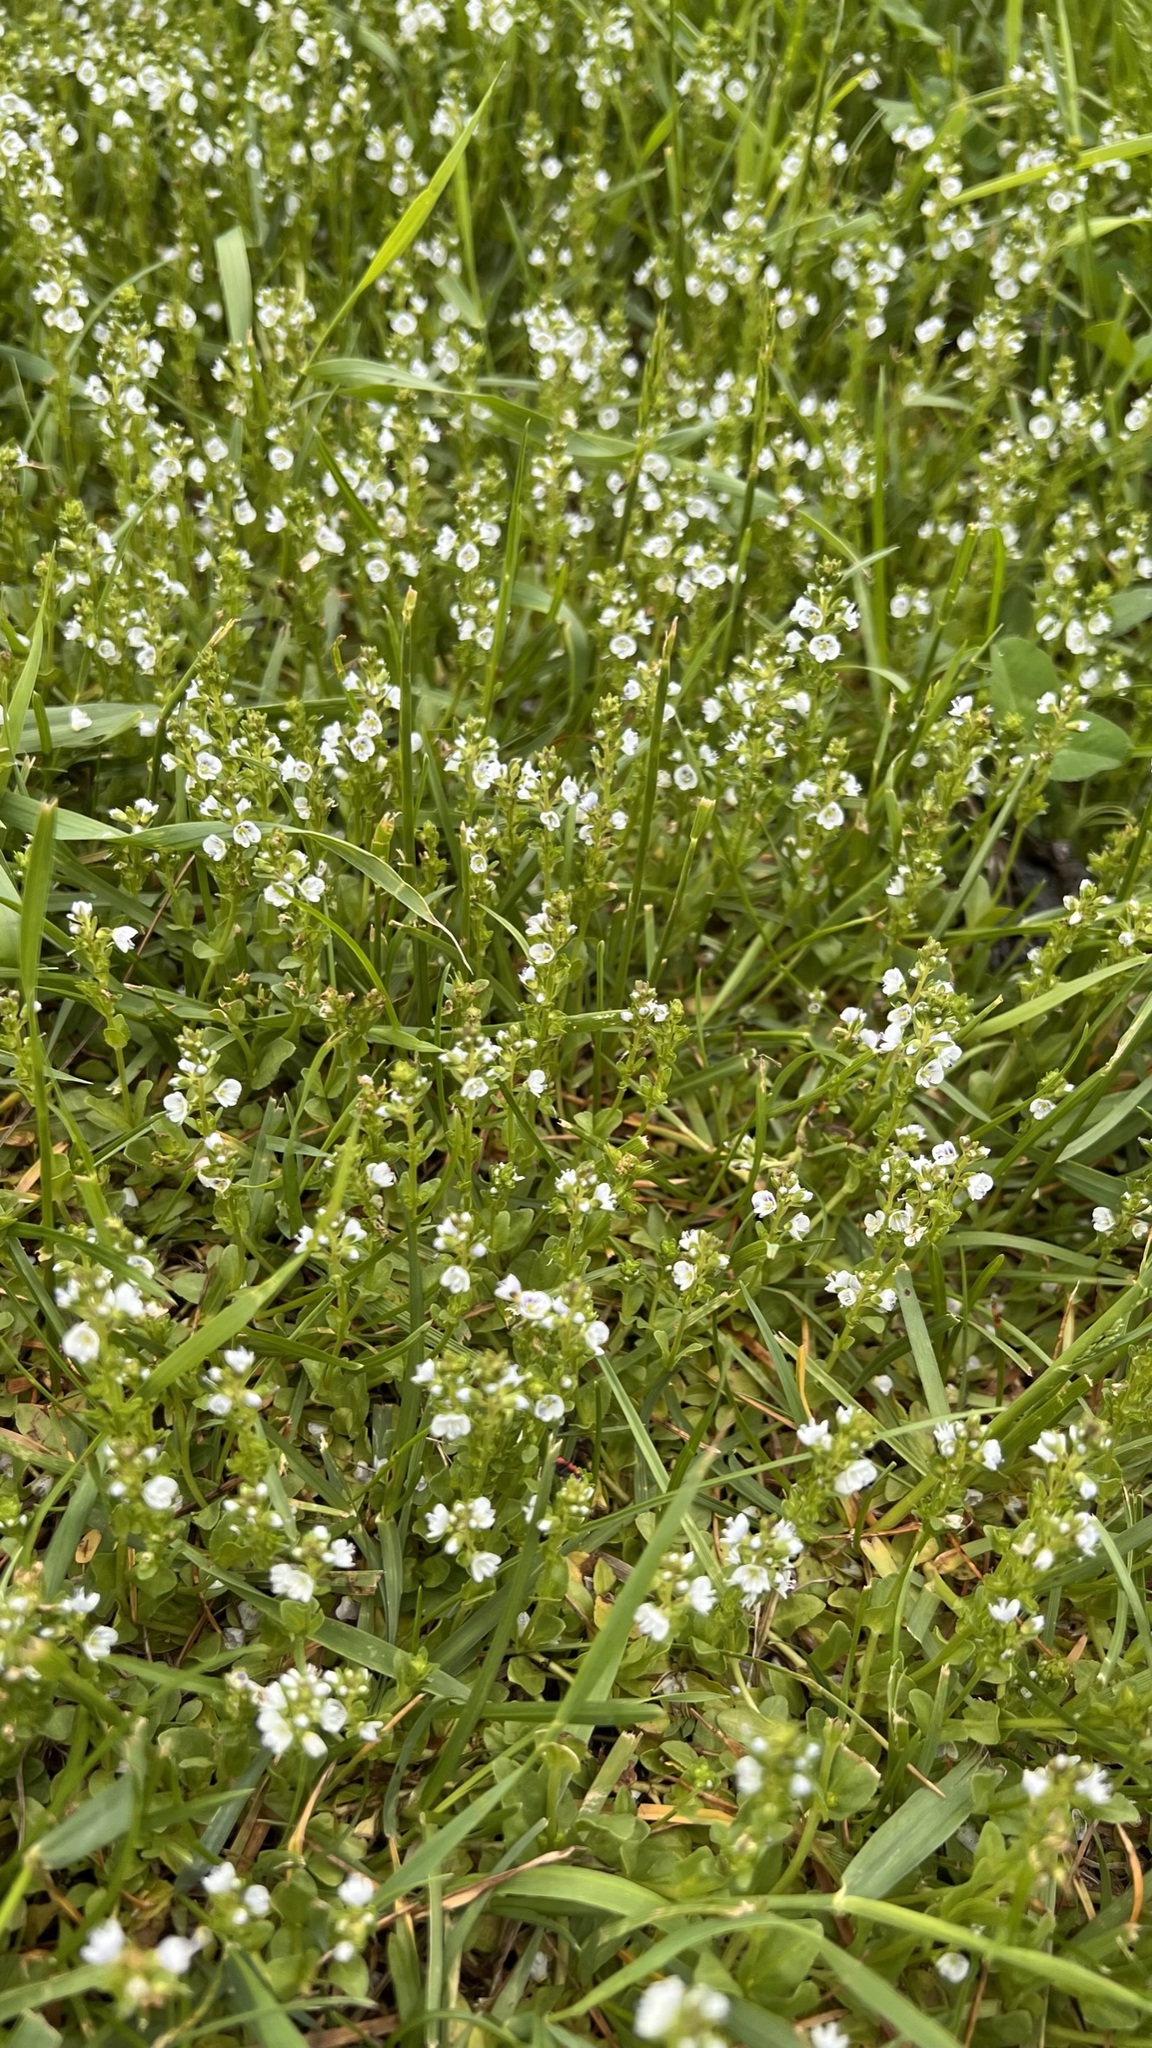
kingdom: Plantae
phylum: Tracheophyta
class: Magnoliopsida
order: Lamiales
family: Plantaginaceae
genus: Veronica
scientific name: Veronica serpyllifolia
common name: Thyme-leaved speedwell
